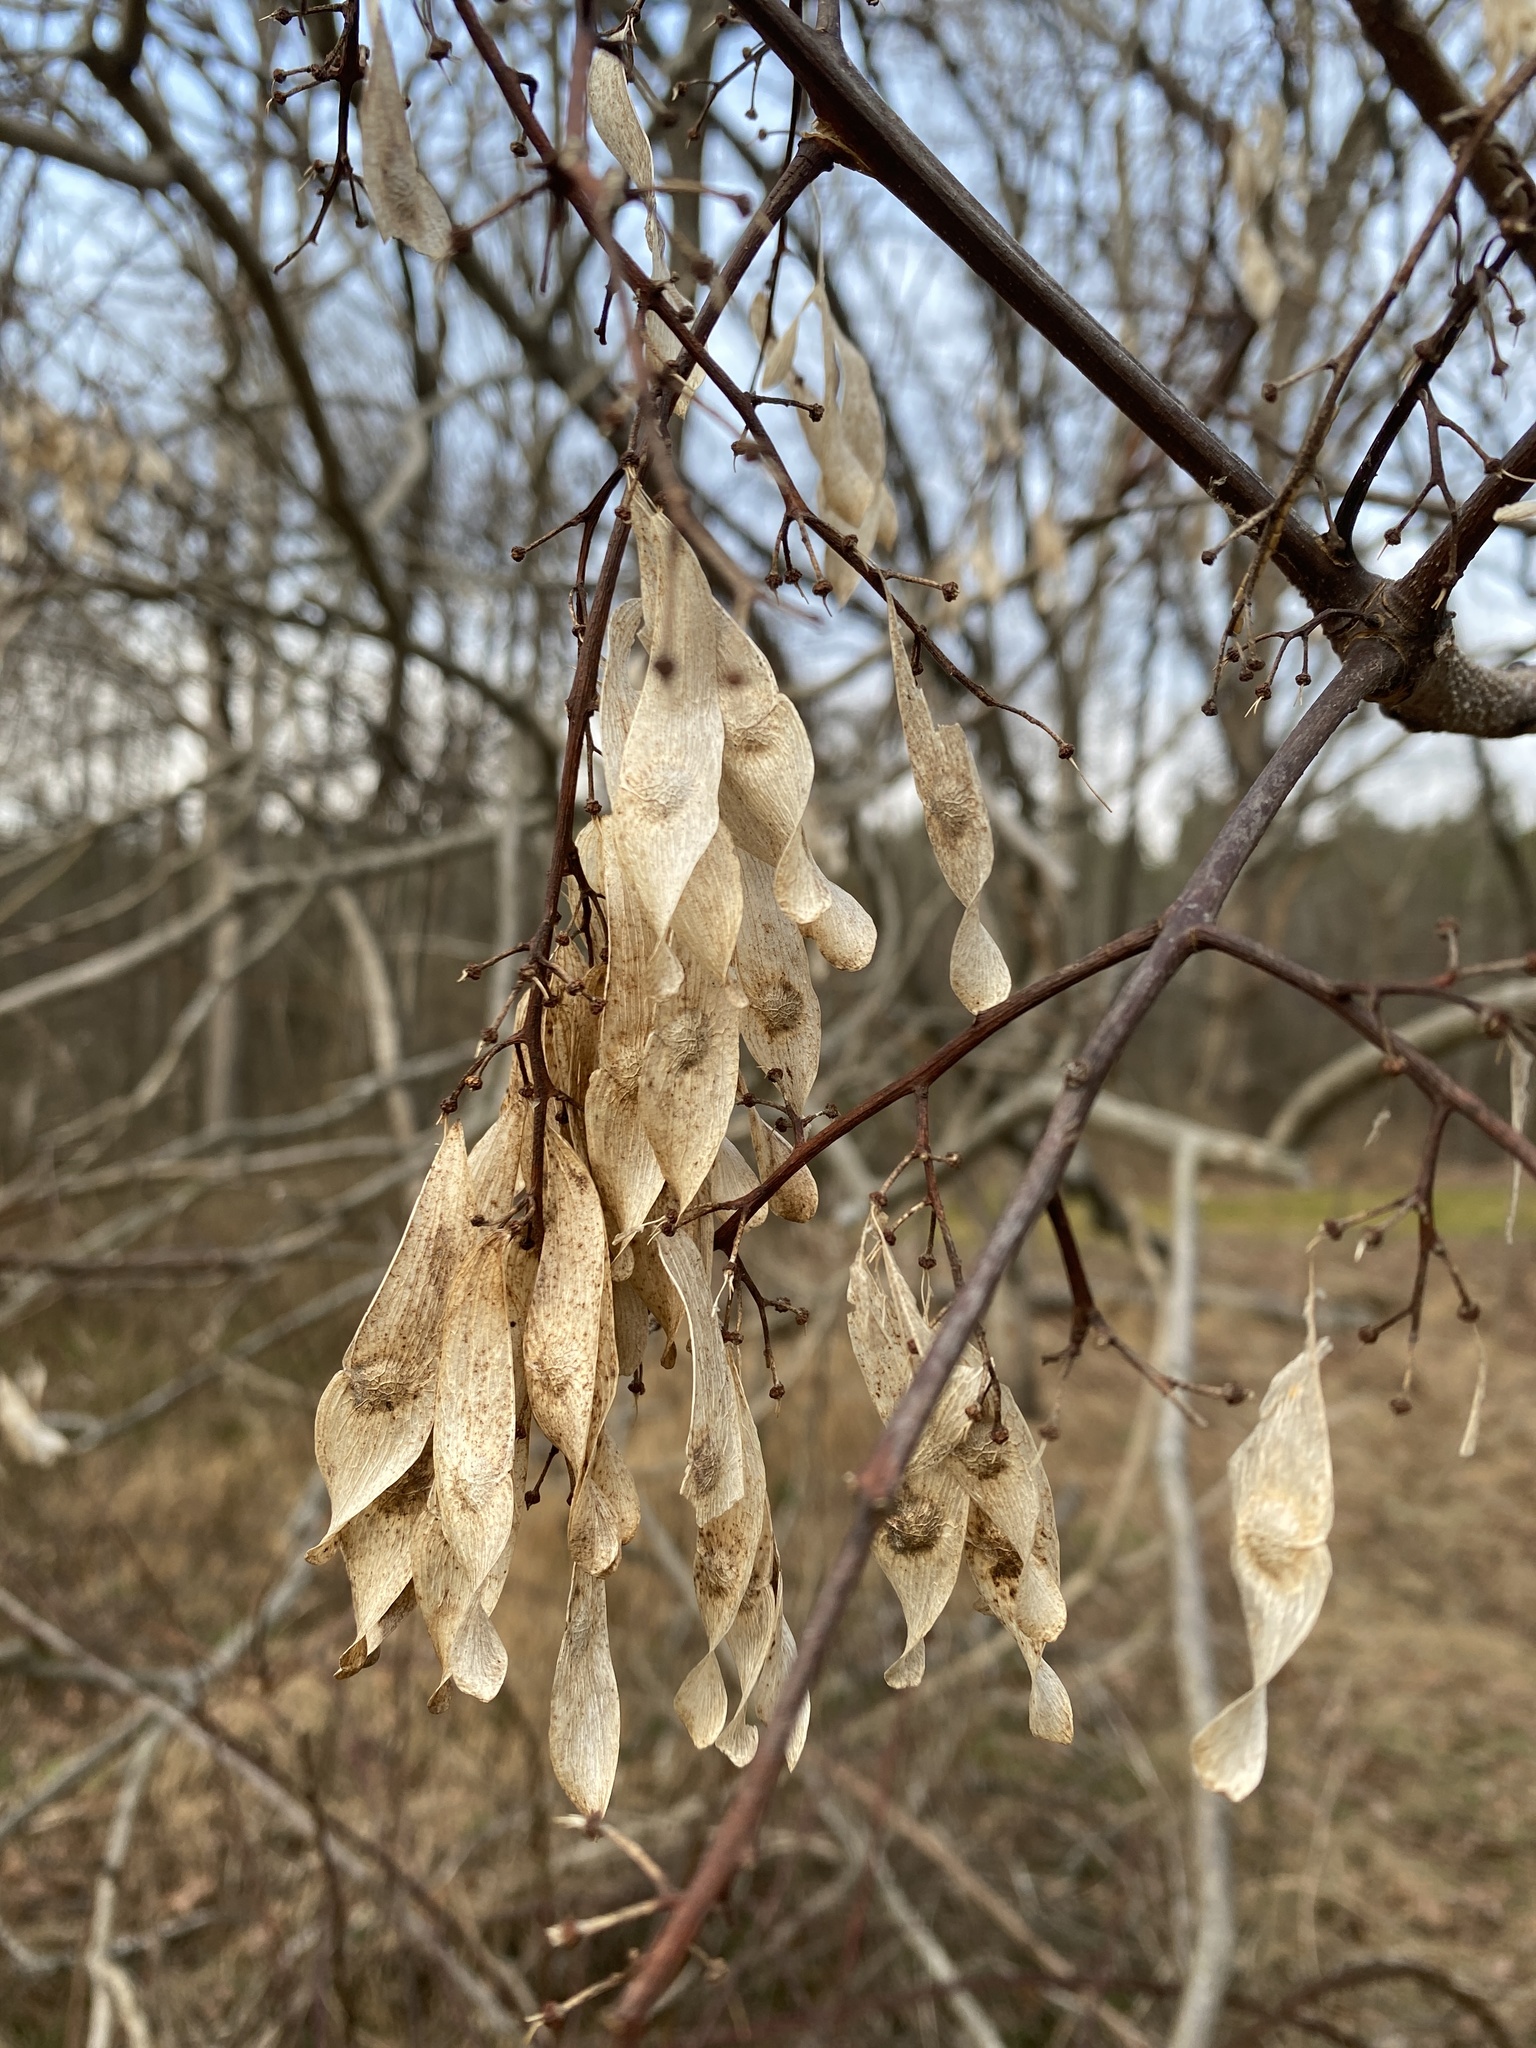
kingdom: Plantae
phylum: Tracheophyta
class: Magnoliopsida
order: Sapindales
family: Simaroubaceae
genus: Ailanthus
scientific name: Ailanthus altissima
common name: Tree-of-heaven
